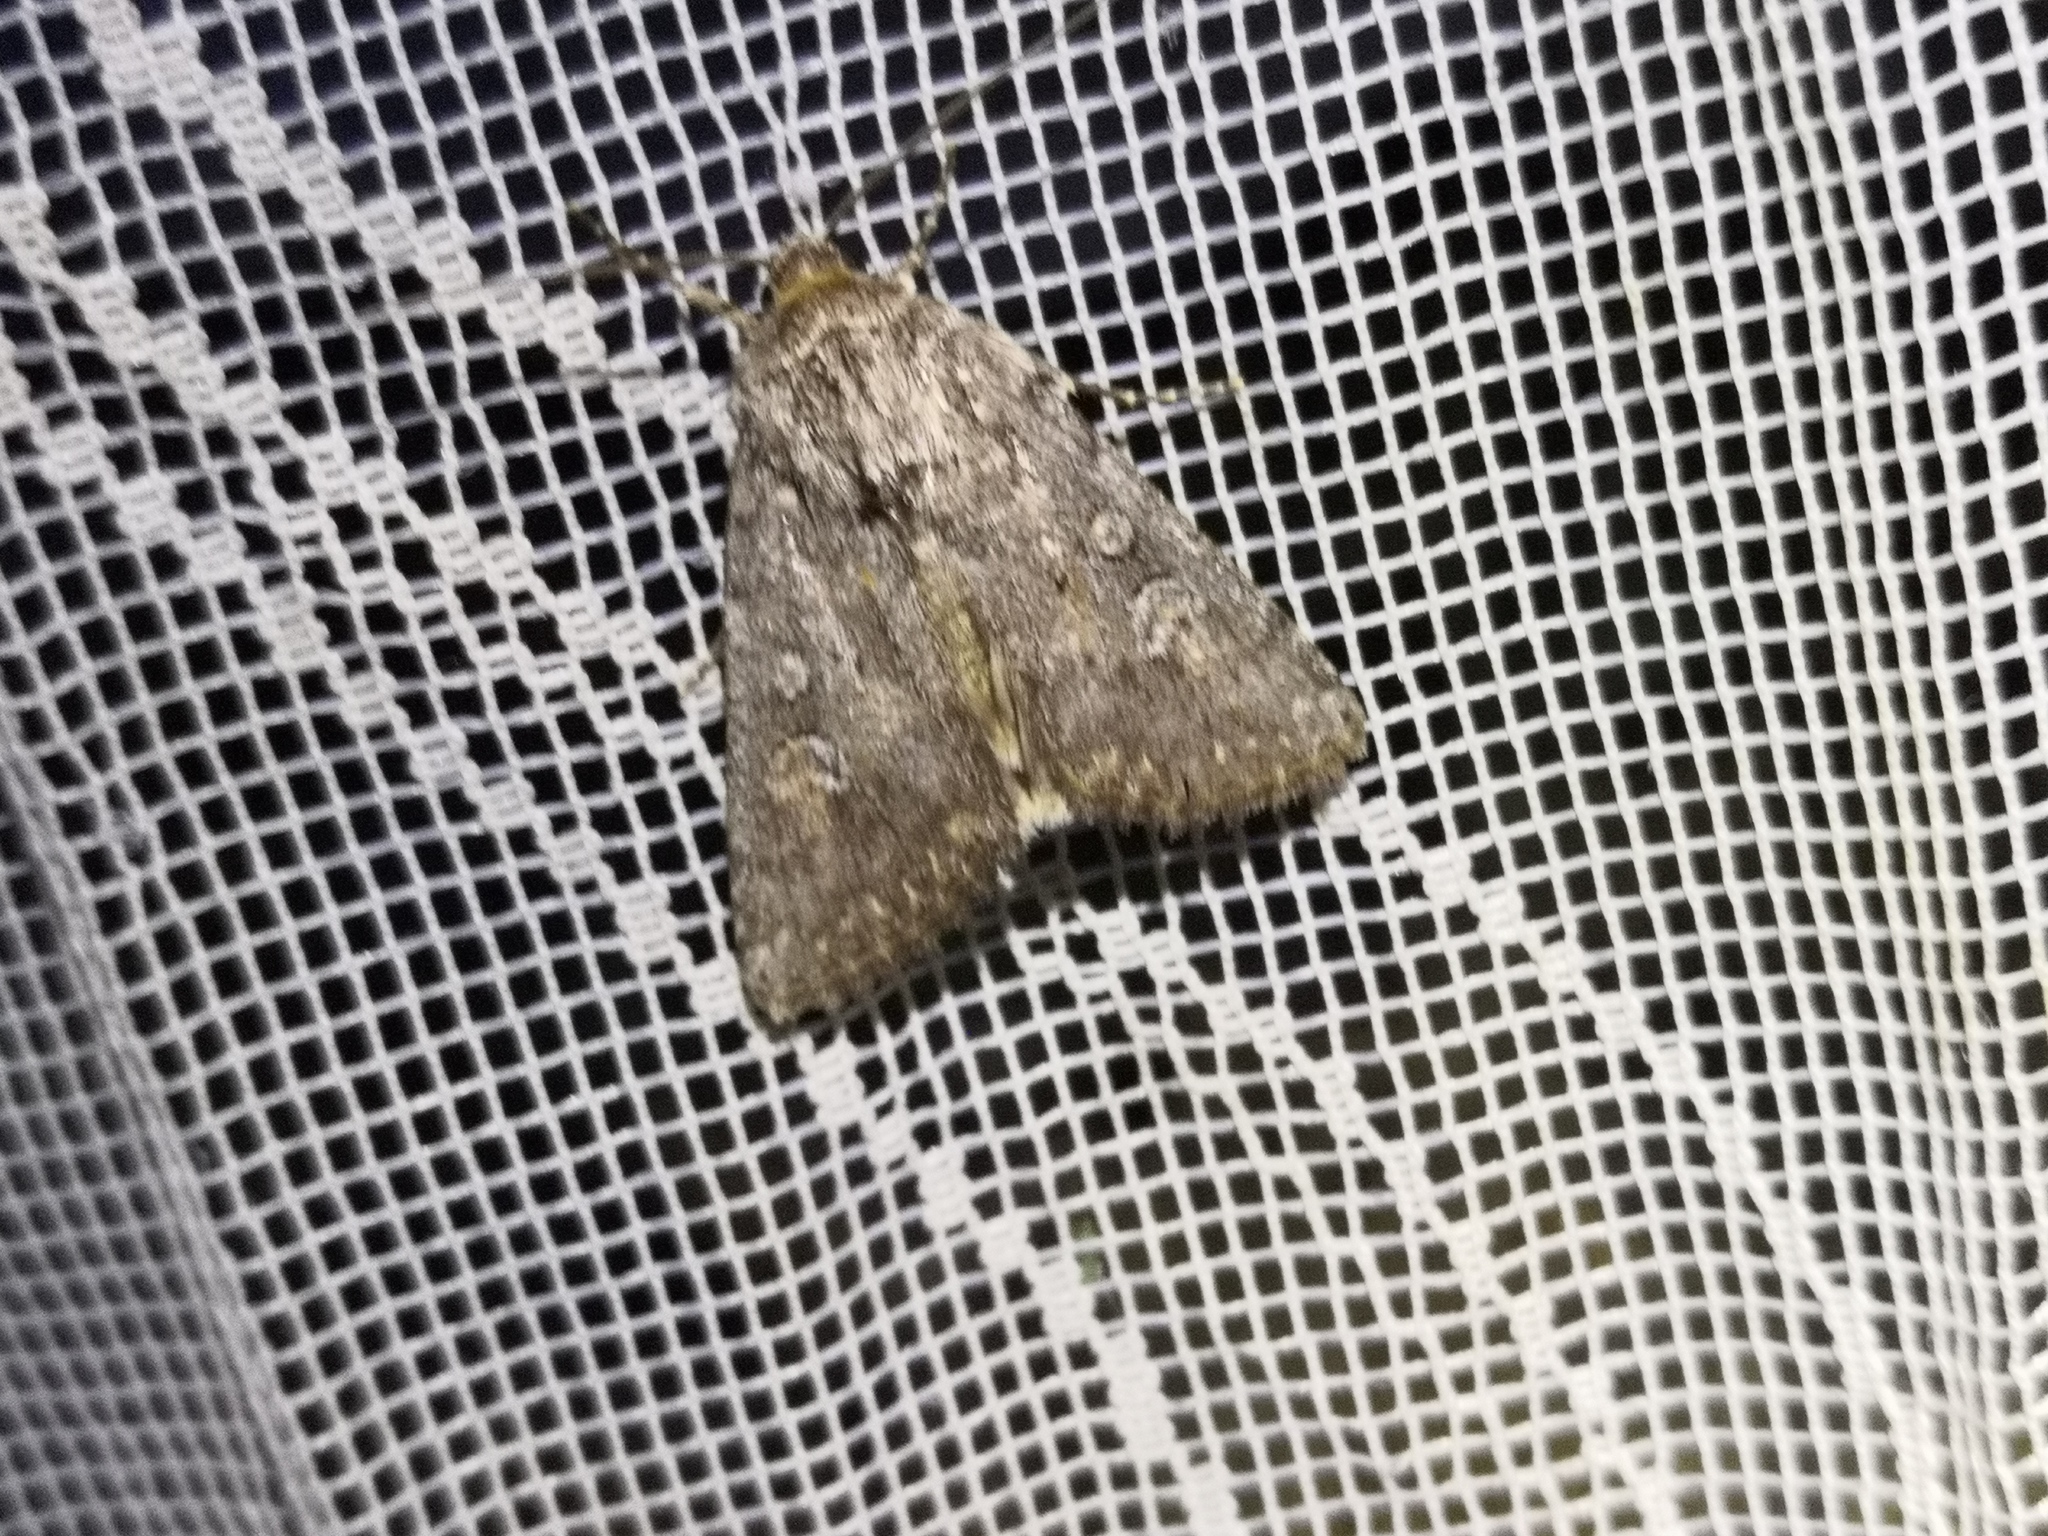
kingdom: Animalia
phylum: Arthropoda
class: Insecta
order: Lepidoptera
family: Noctuidae
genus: Yigoga
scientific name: Yigoga forcipula
